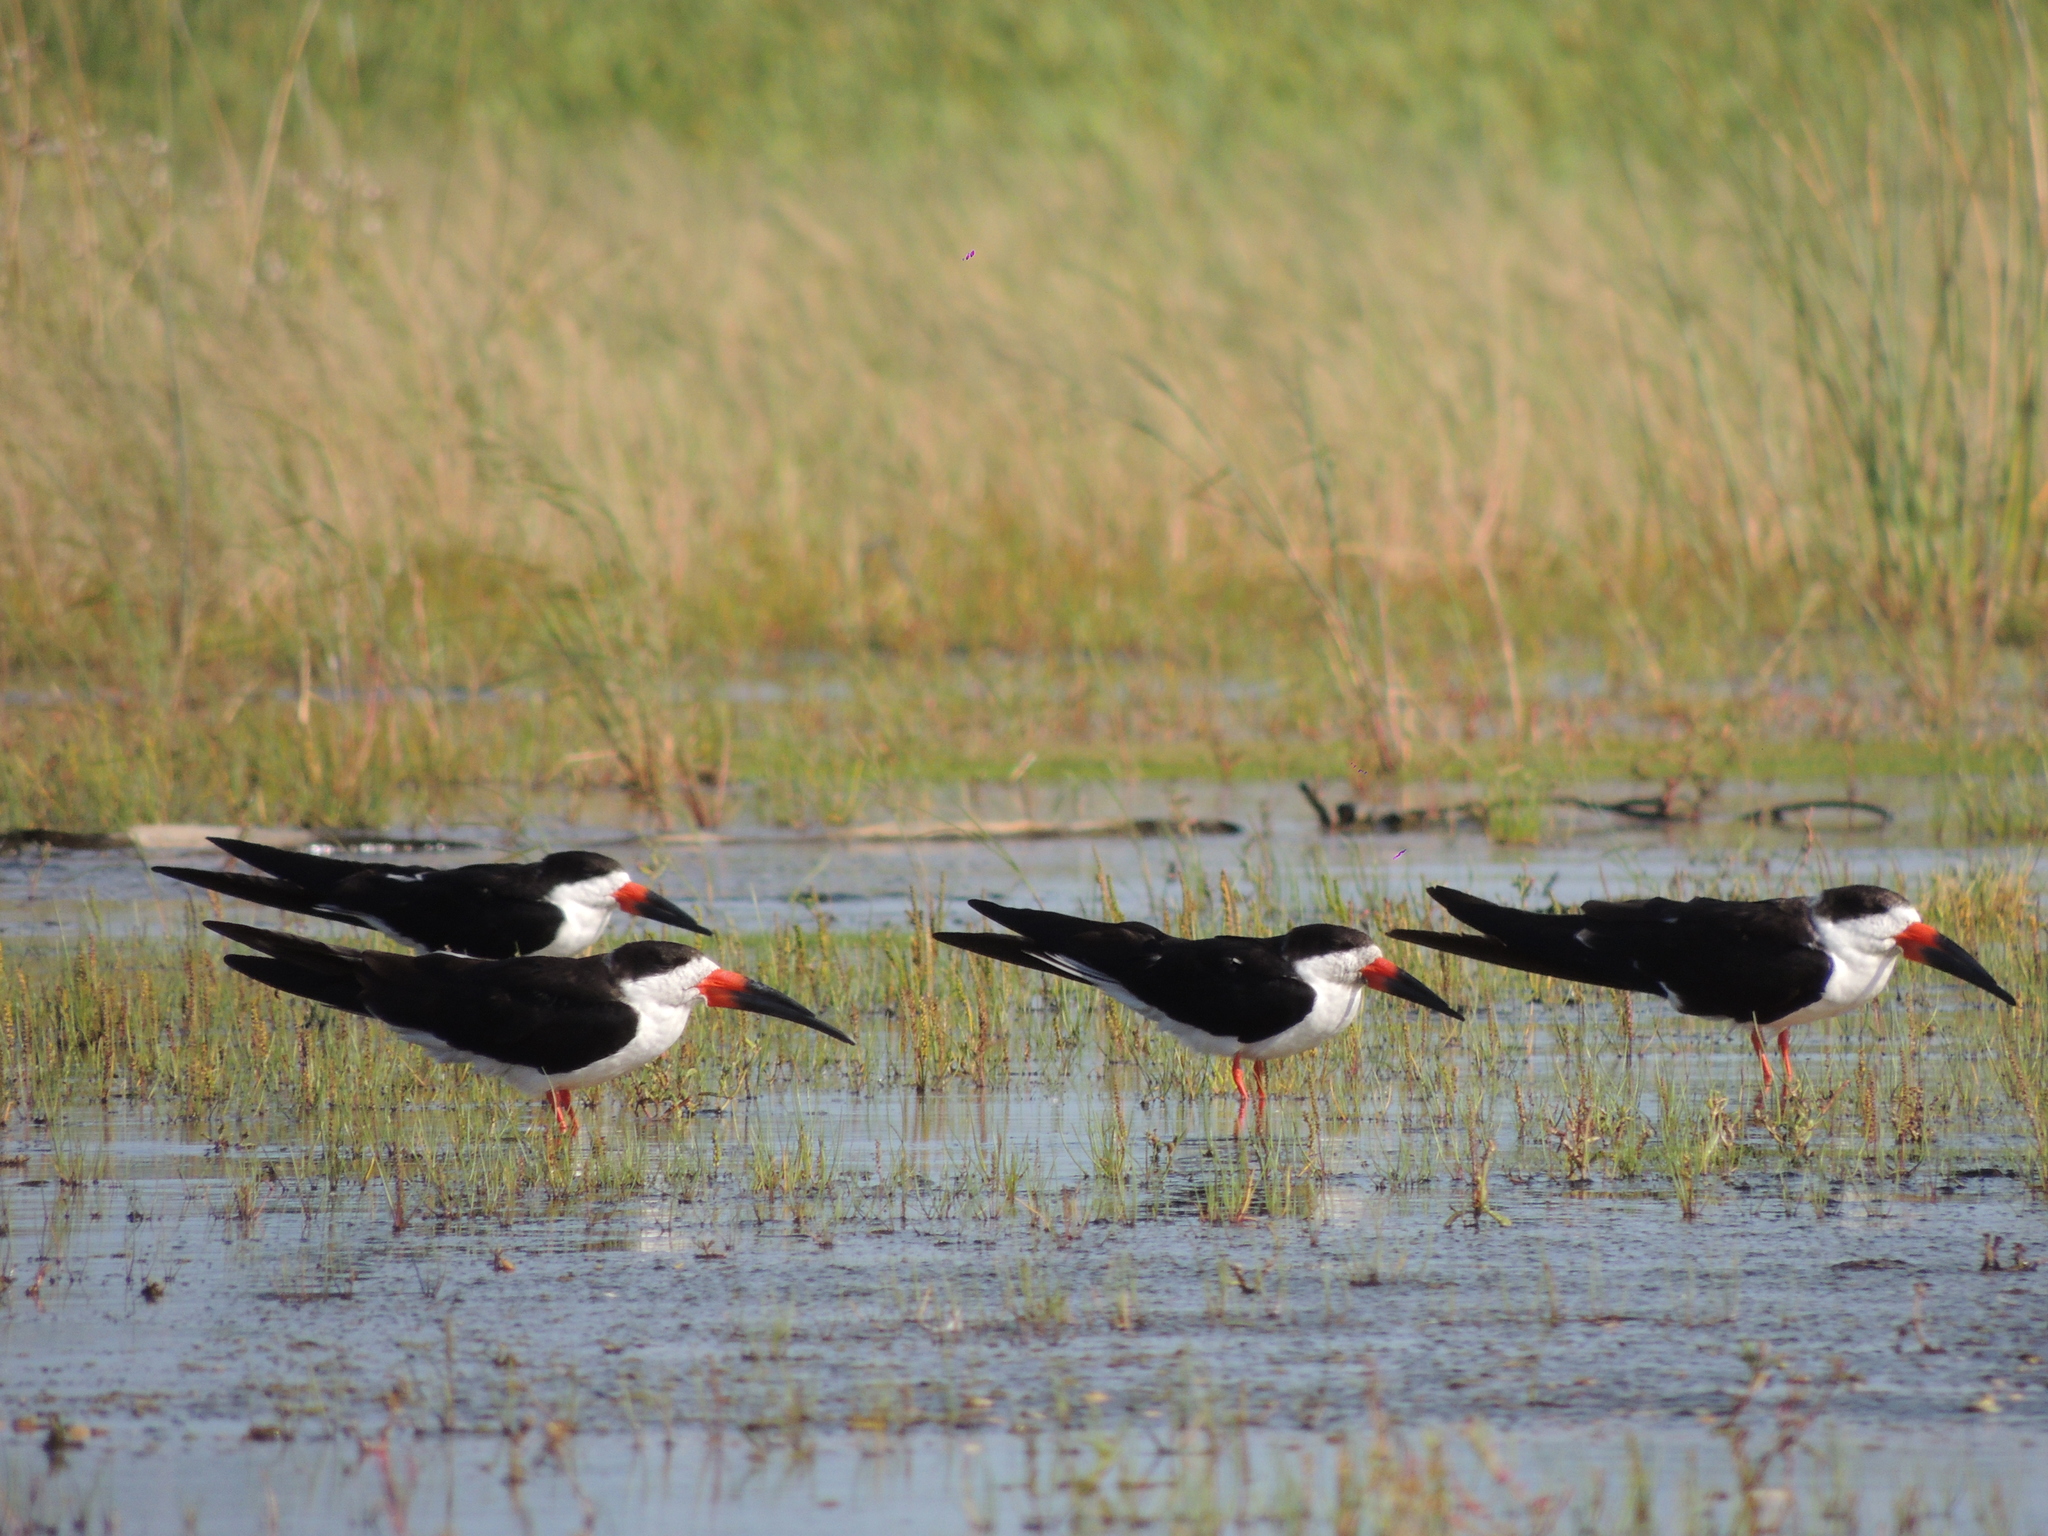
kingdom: Animalia
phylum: Chordata
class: Aves
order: Charadriiformes
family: Laridae
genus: Rynchops
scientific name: Rynchops niger
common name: Black skimmer
